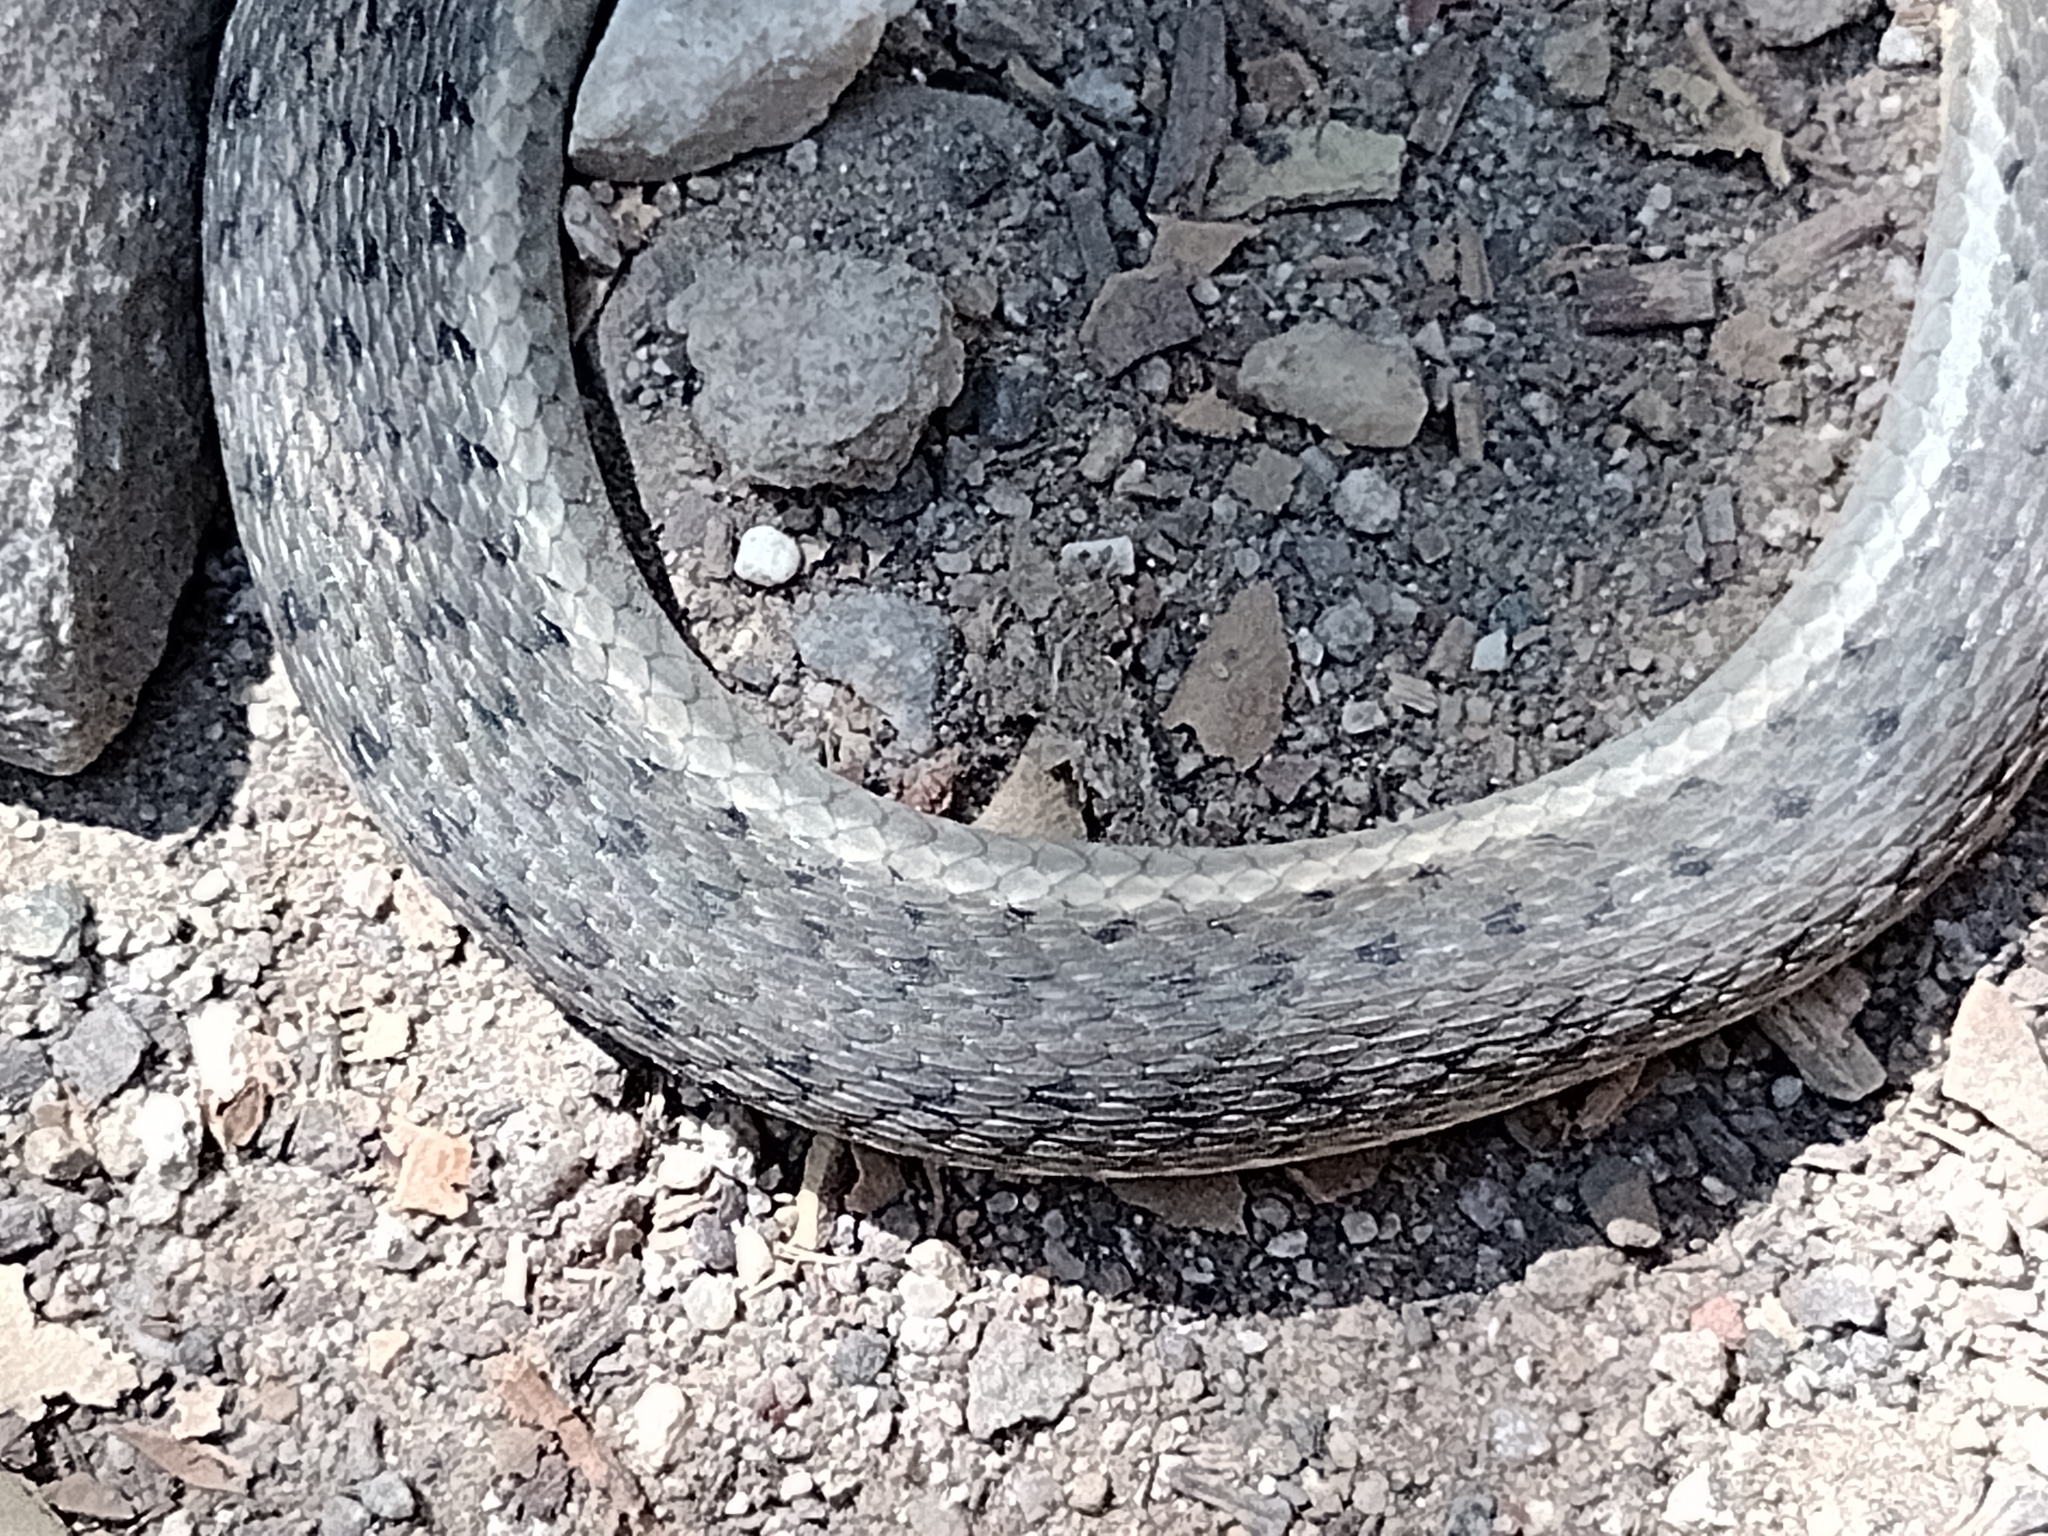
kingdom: Animalia
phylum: Chordata
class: Squamata
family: Colubridae
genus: Thamnophis
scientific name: Thamnophis hammondii
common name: Two-striped garter snake
